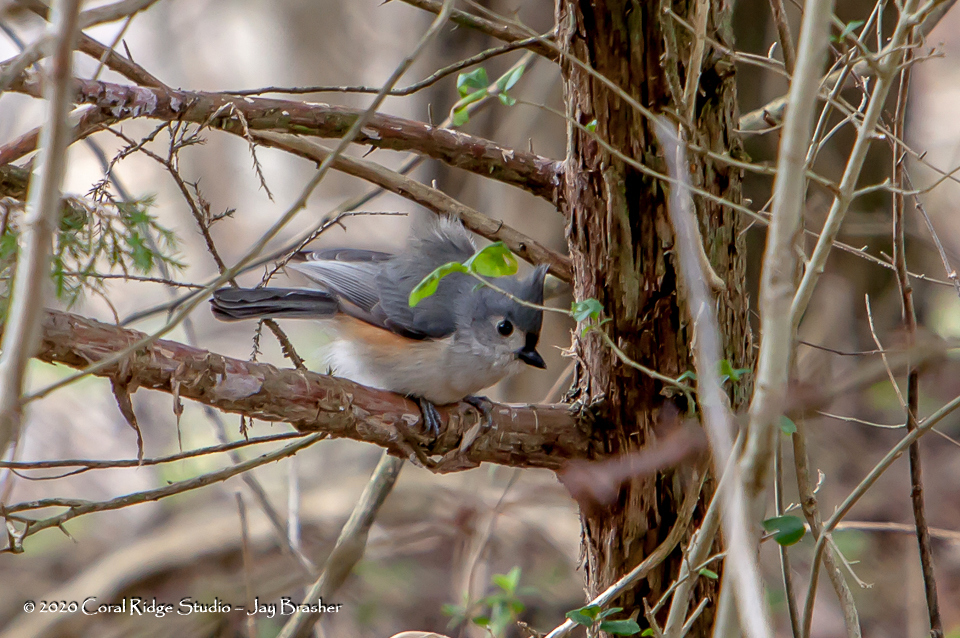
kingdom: Animalia
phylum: Chordata
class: Aves
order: Passeriformes
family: Paridae
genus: Baeolophus
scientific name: Baeolophus bicolor
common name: Tufted titmouse
